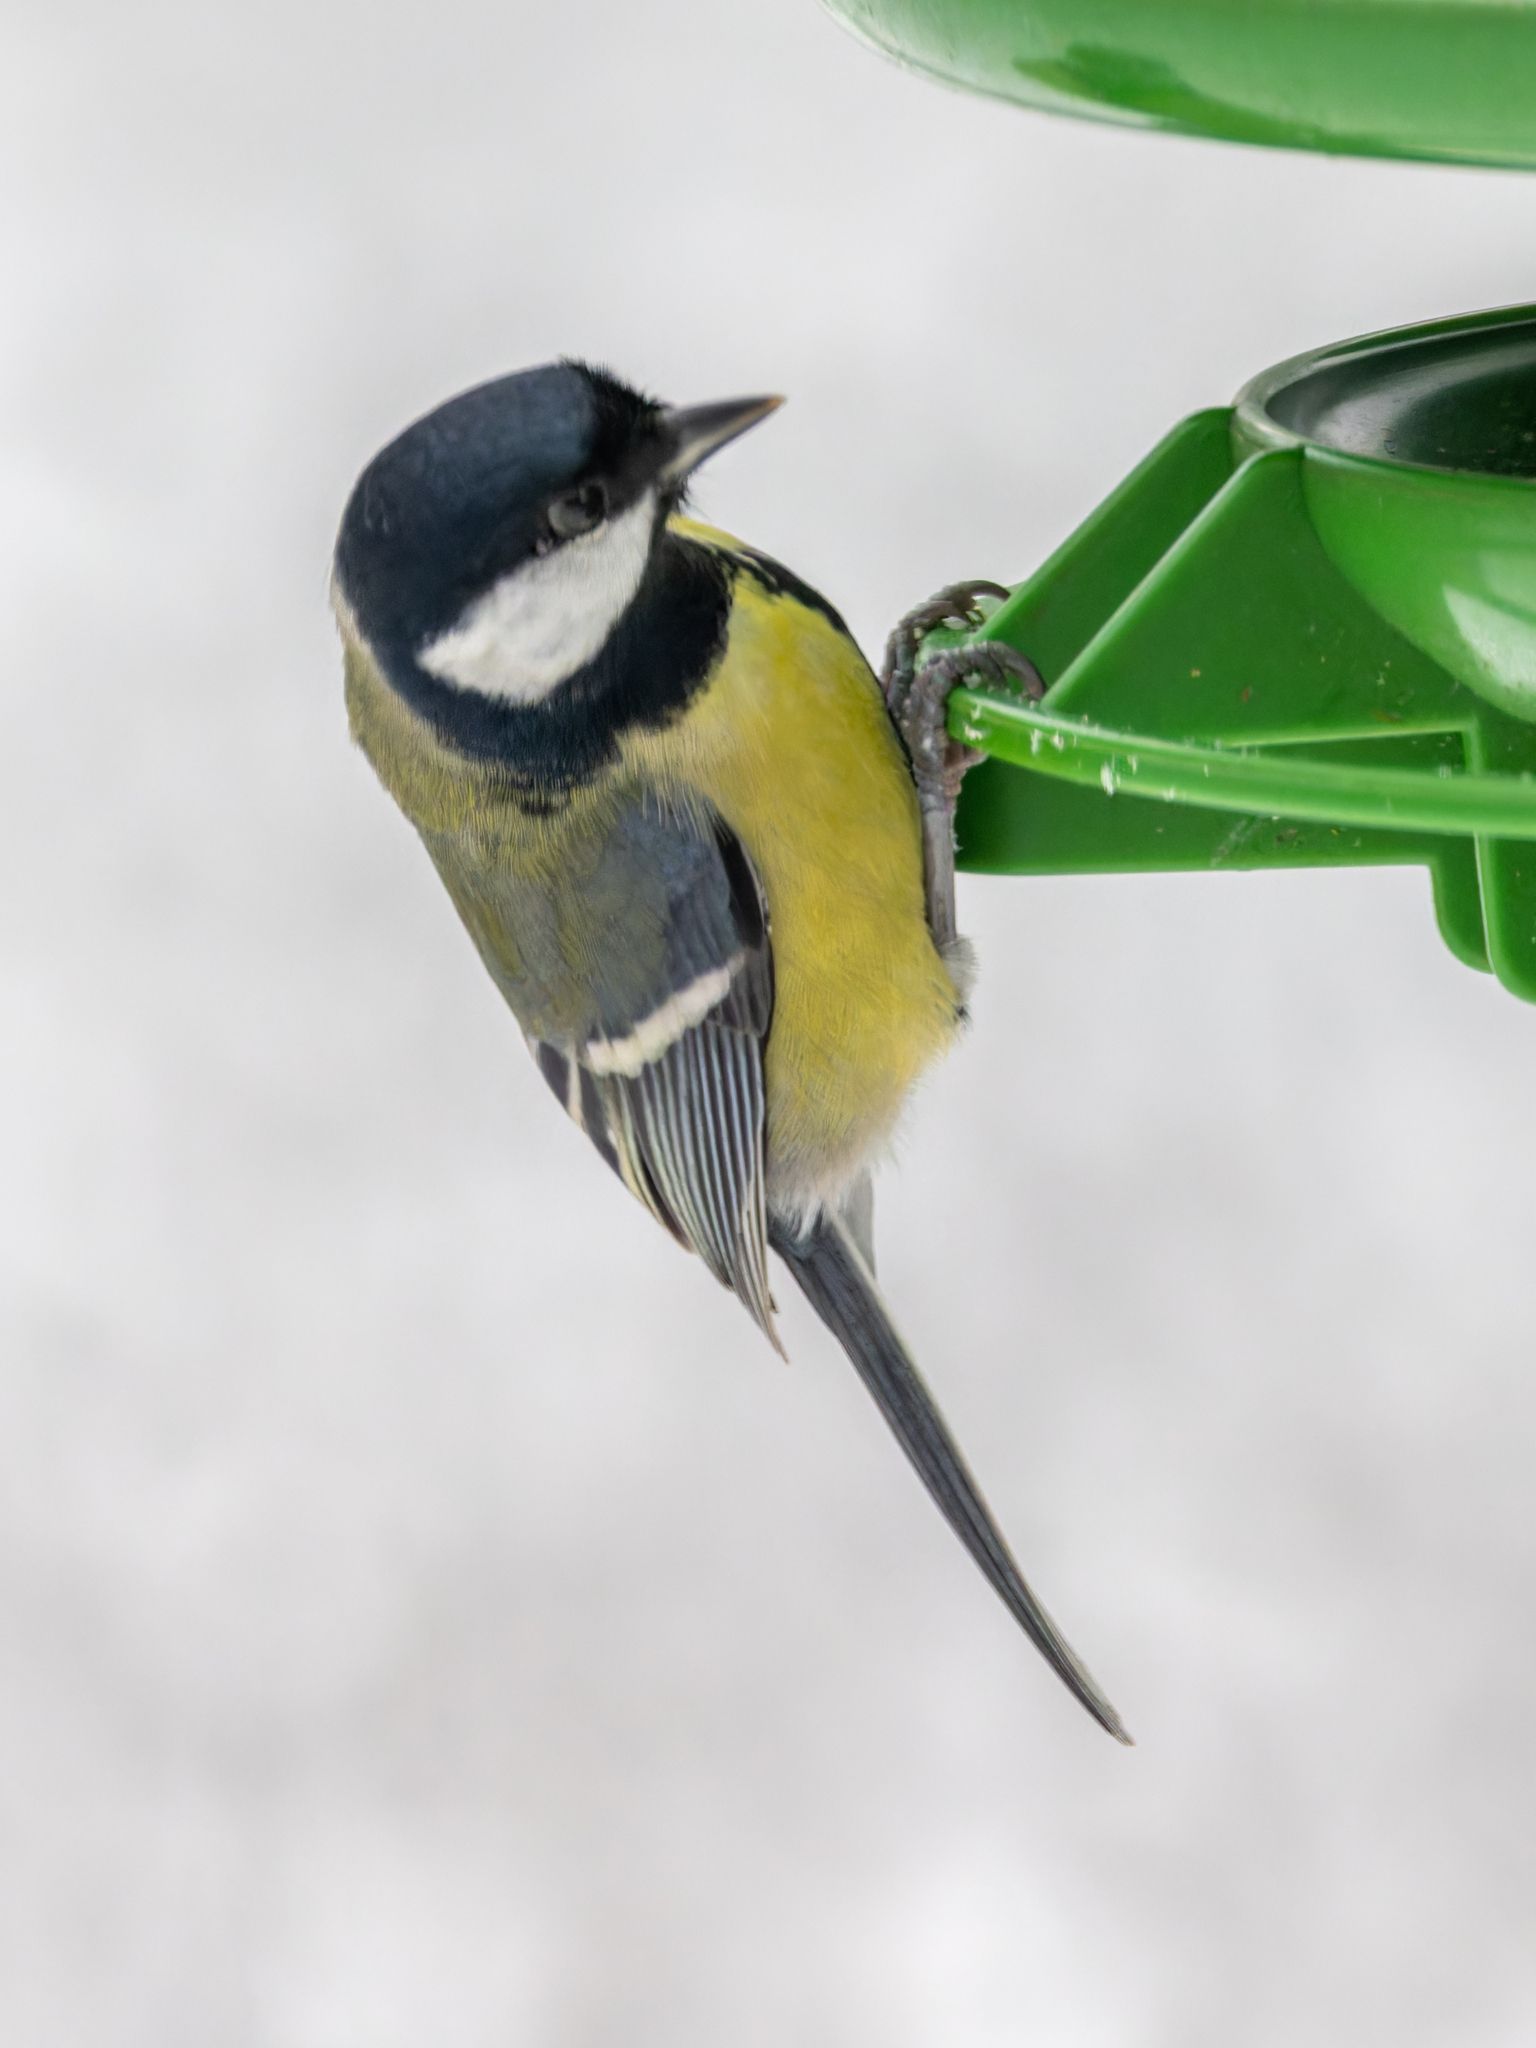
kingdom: Animalia
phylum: Chordata
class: Aves
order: Passeriformes
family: Paridae
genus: Parus
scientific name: Parus major
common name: Great tit
